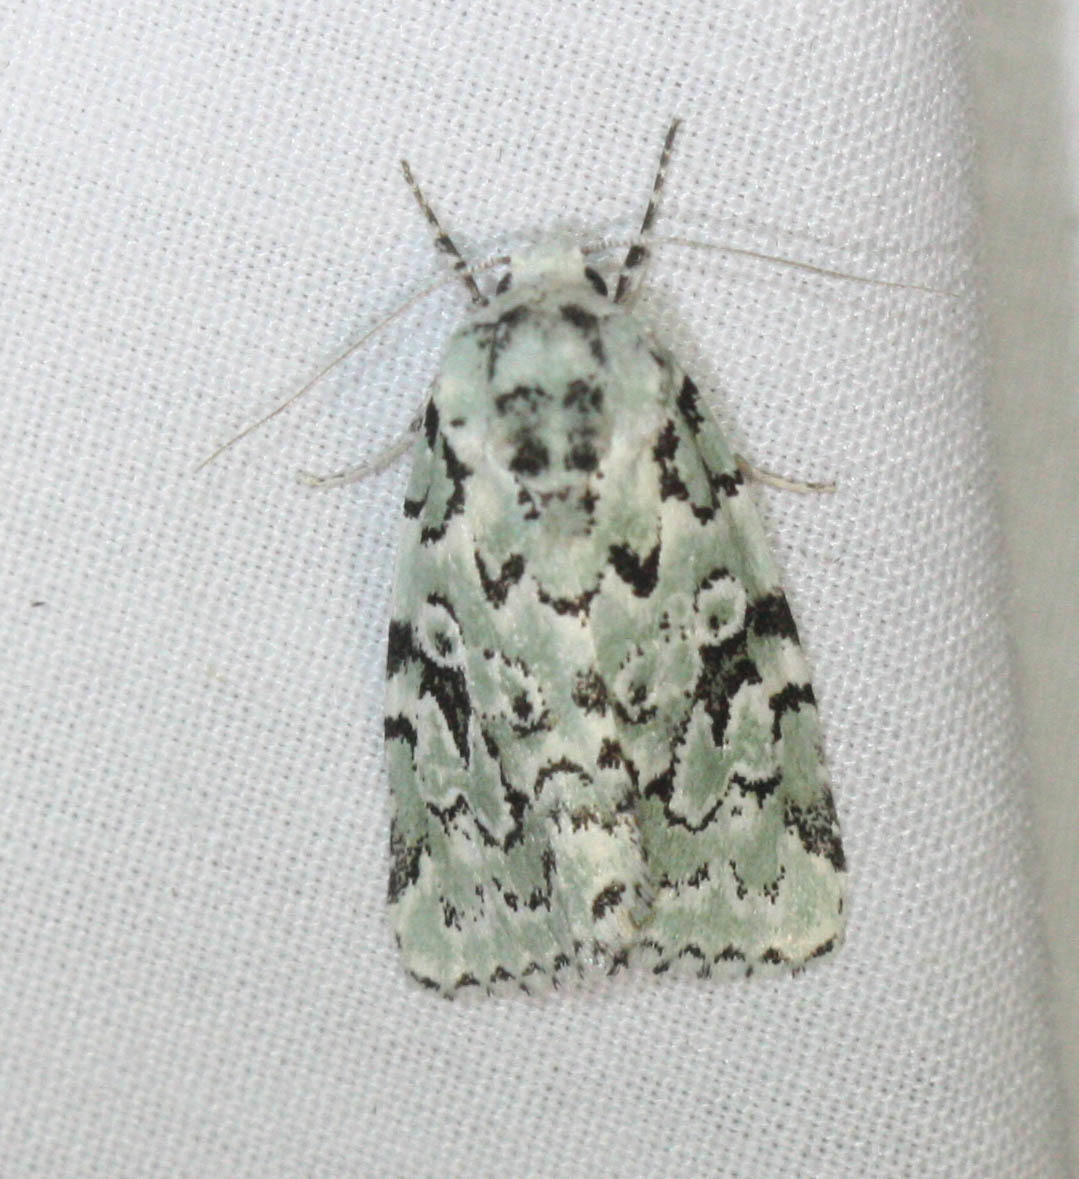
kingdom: Animalia
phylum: Arthropoda
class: Insecta
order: Lepidoptera
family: Noctuidae
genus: Bryolymnia
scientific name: Bryolymnia viridata
